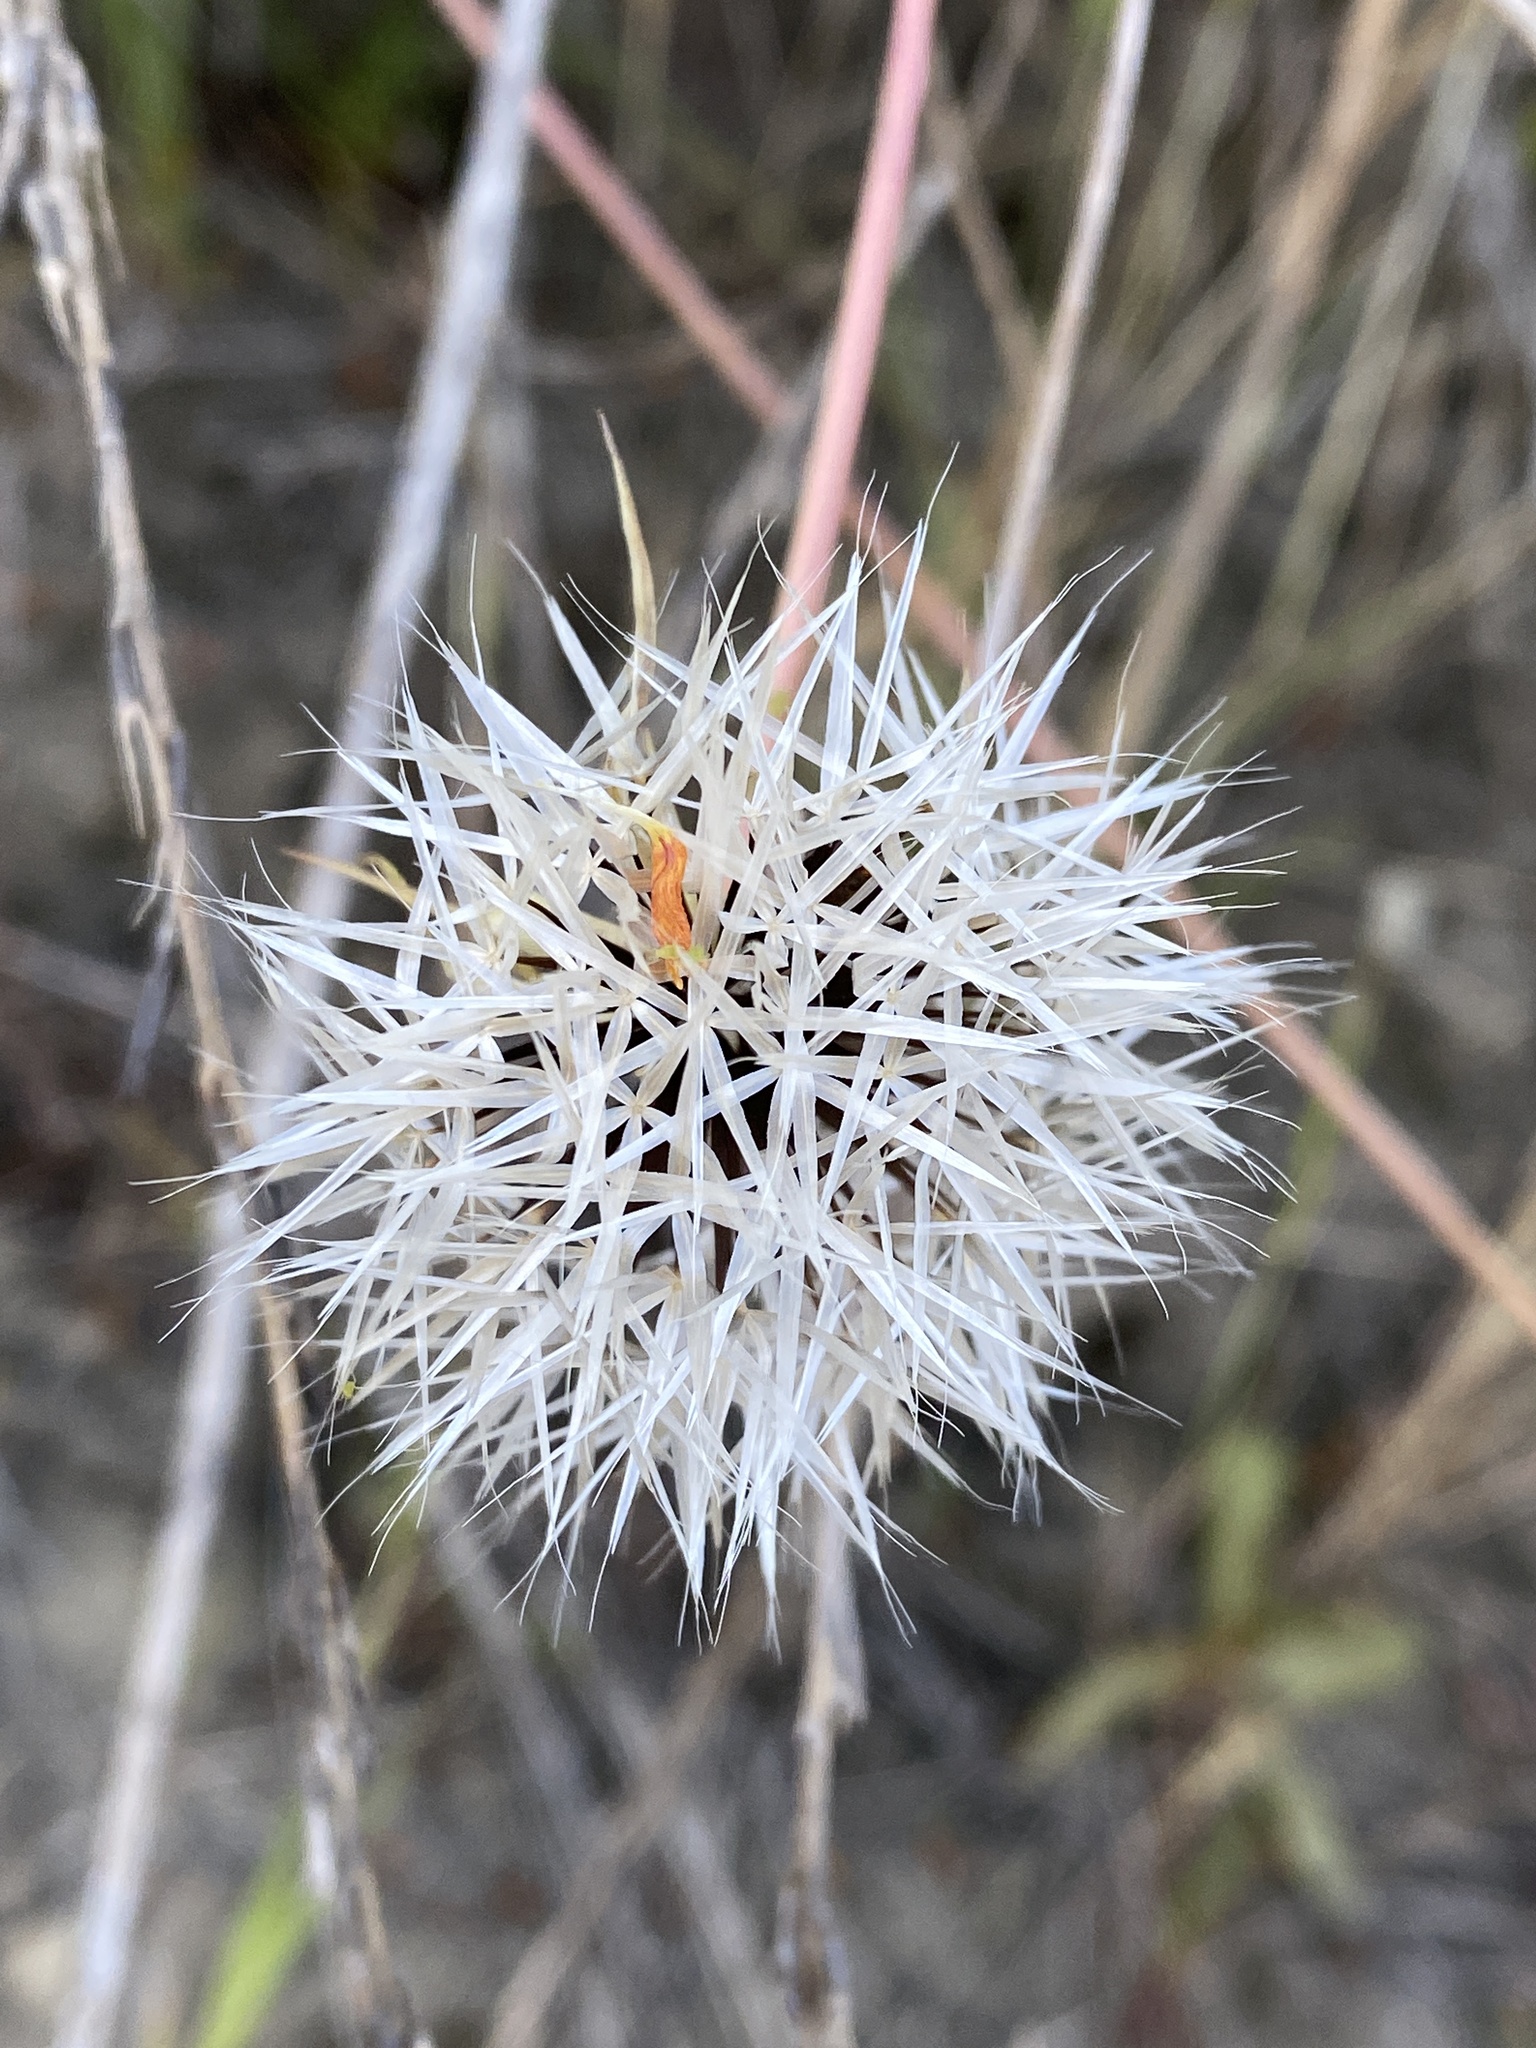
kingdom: Plantae
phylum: Tracheophyta
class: Magnoliopsida
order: Asterales
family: Asteraceae
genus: Microseris
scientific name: Microseris lindleyi
